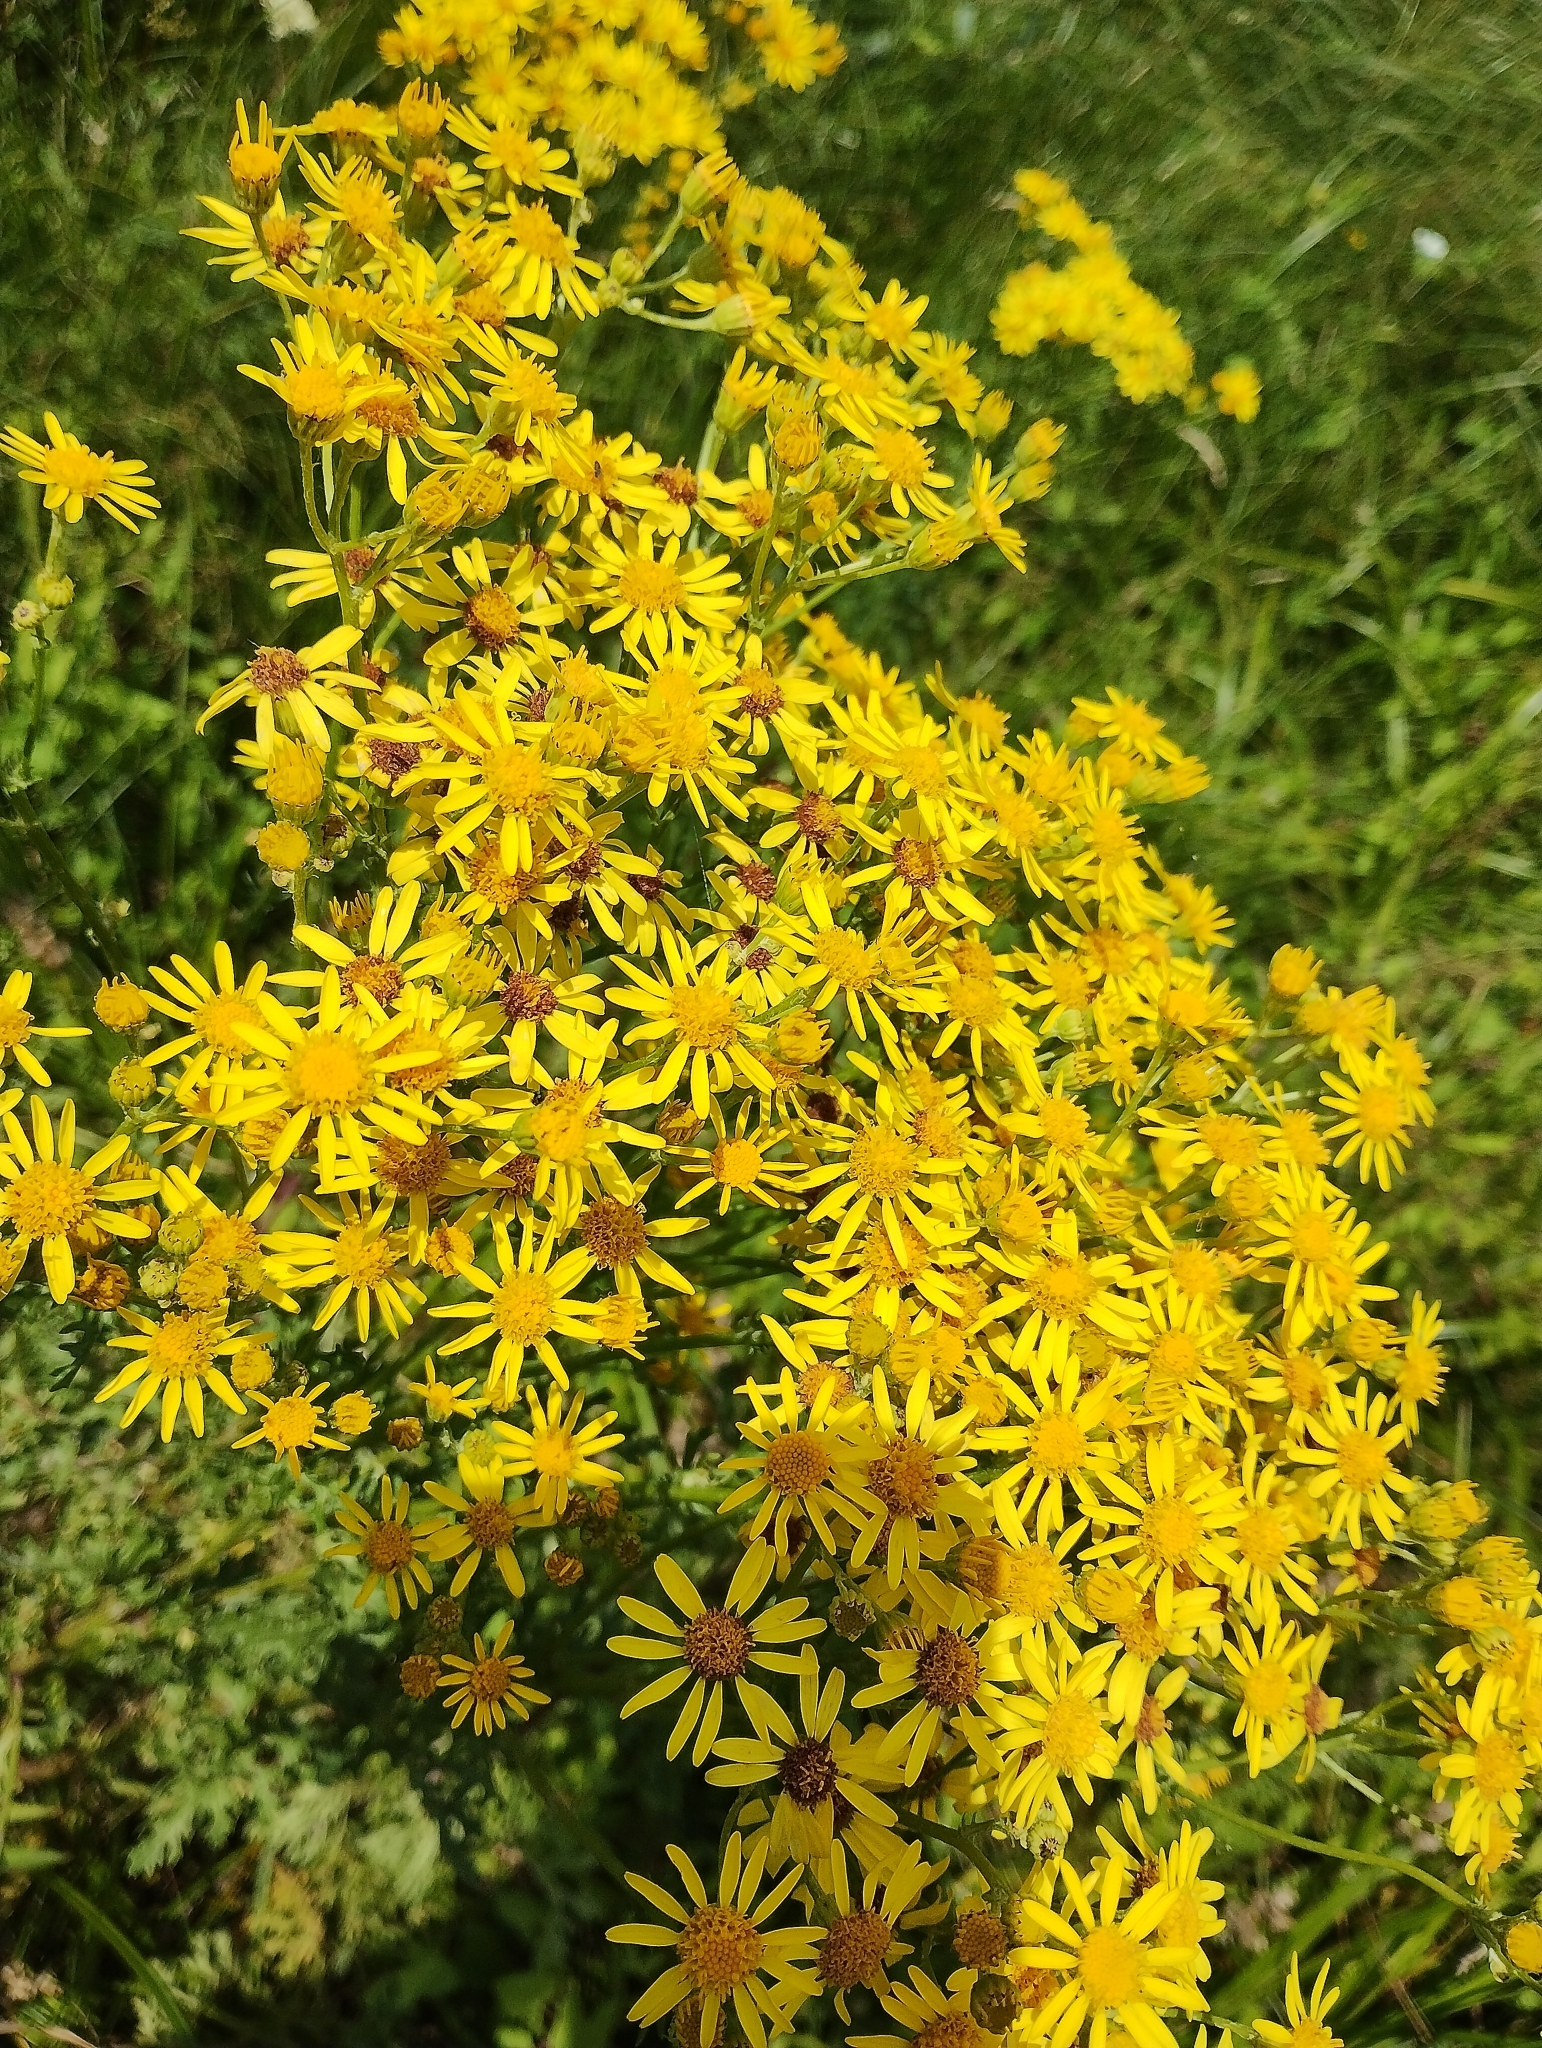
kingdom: Plantae
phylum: Tracheophyta
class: Magnoliopsida
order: Asterales
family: Asteraceae
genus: Jacobaea
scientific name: Jacobaea vulgaris
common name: Stinking willie
